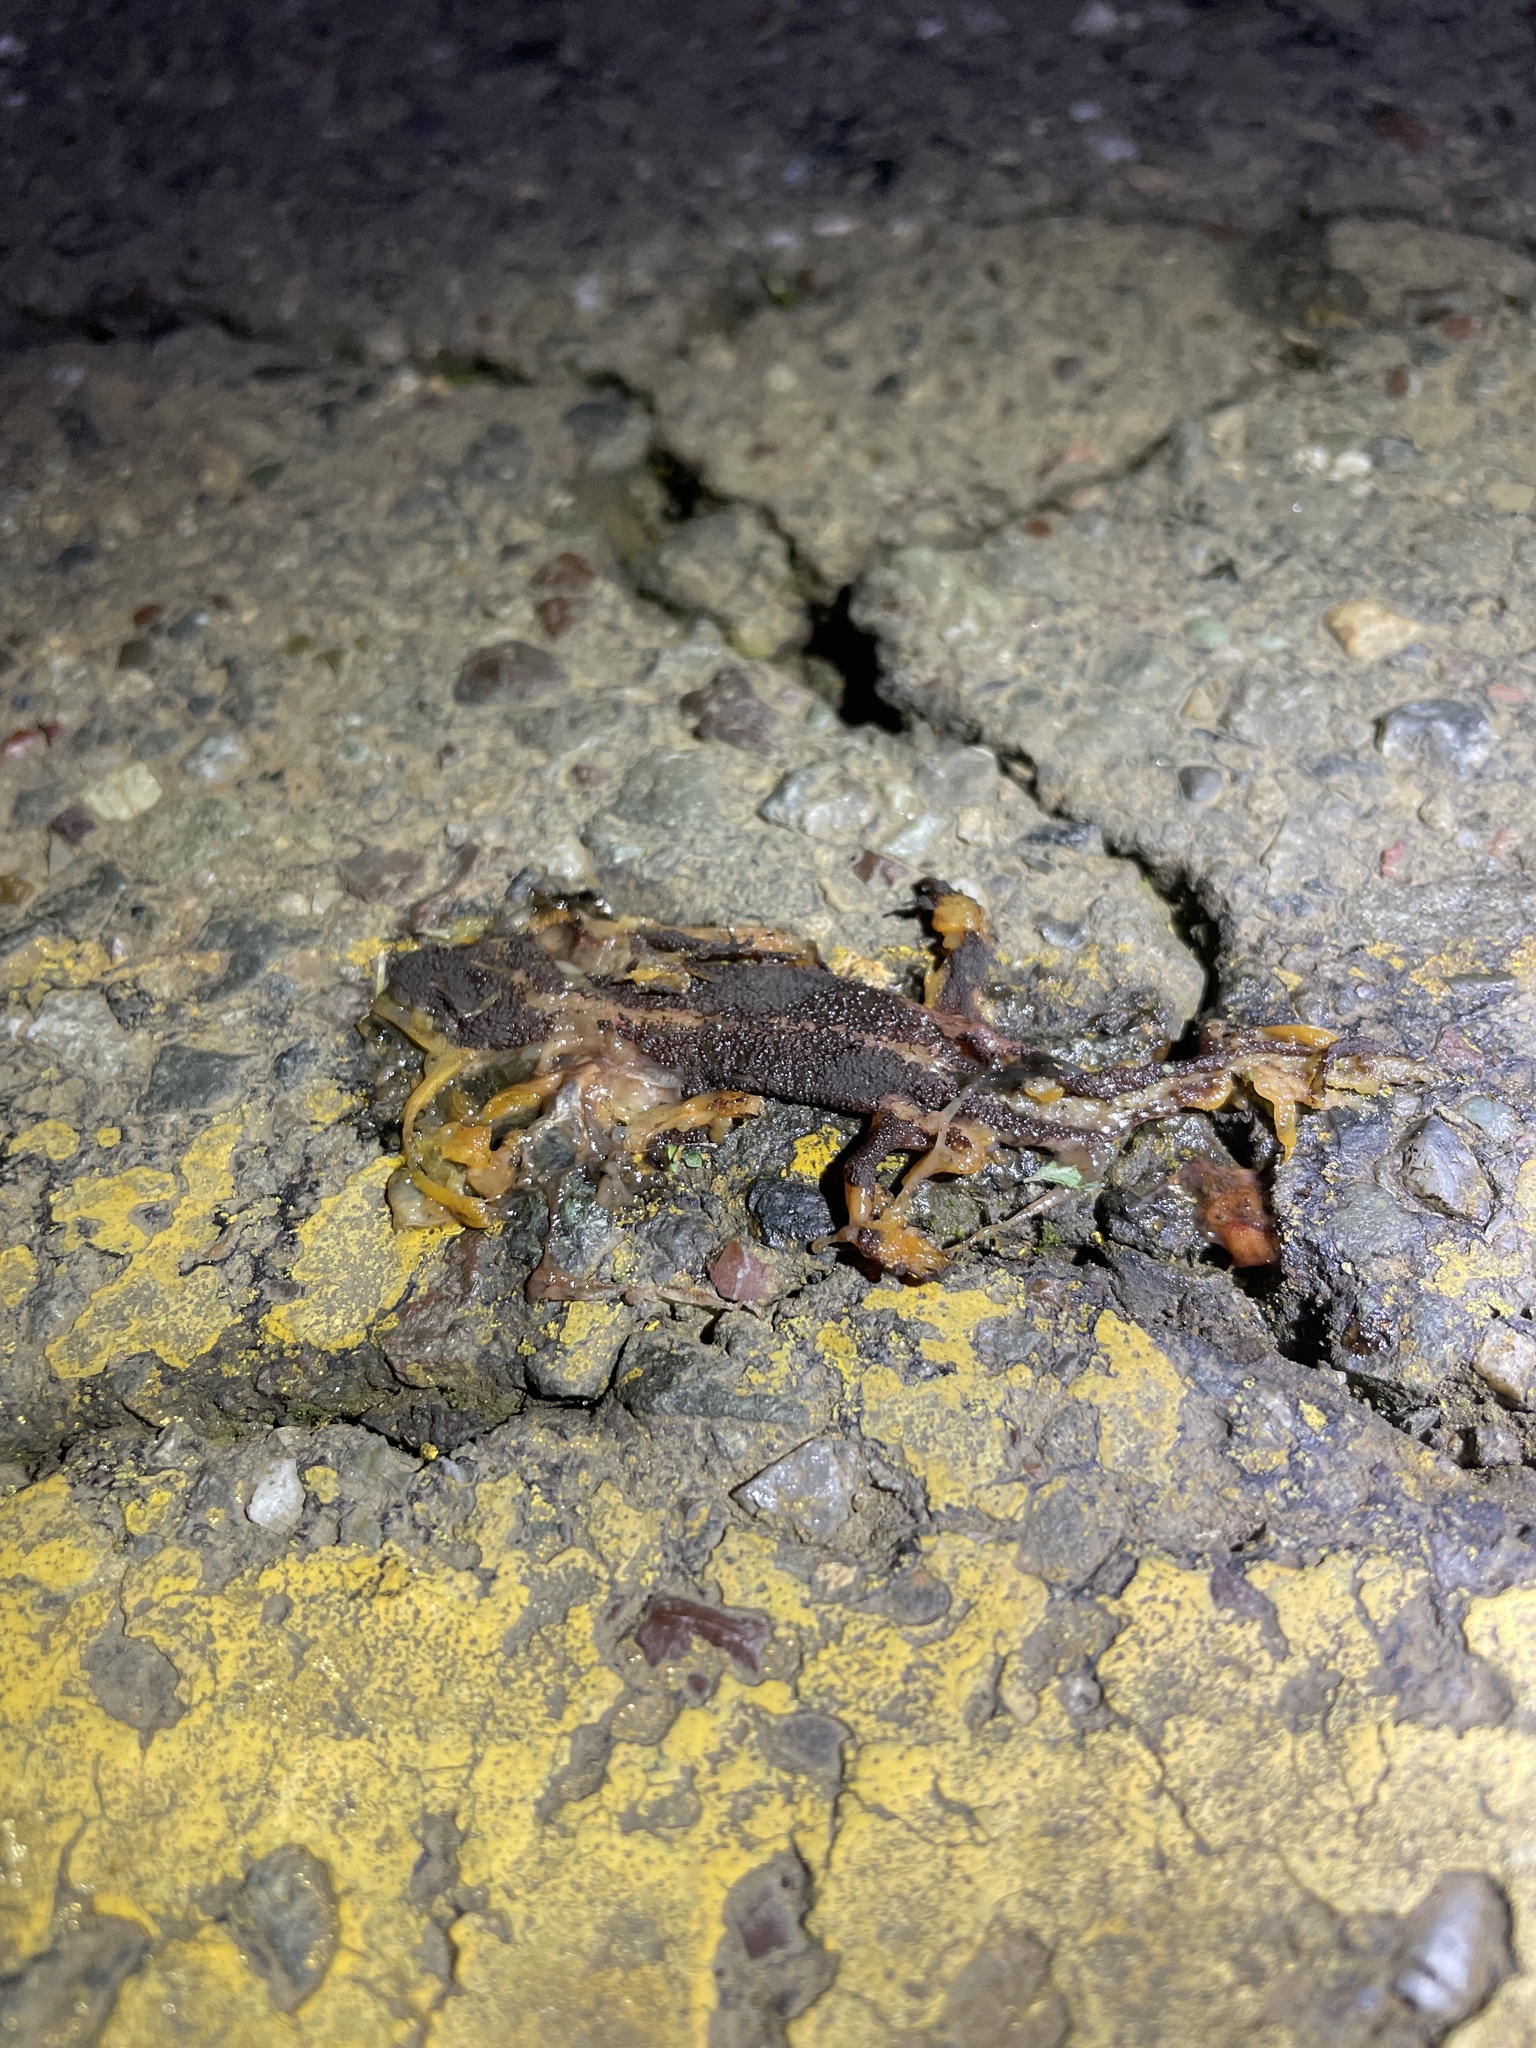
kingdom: Animalia
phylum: Chordata
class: Amphibia
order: Caudata
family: Salamandridae
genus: Taricha
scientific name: Taricha
